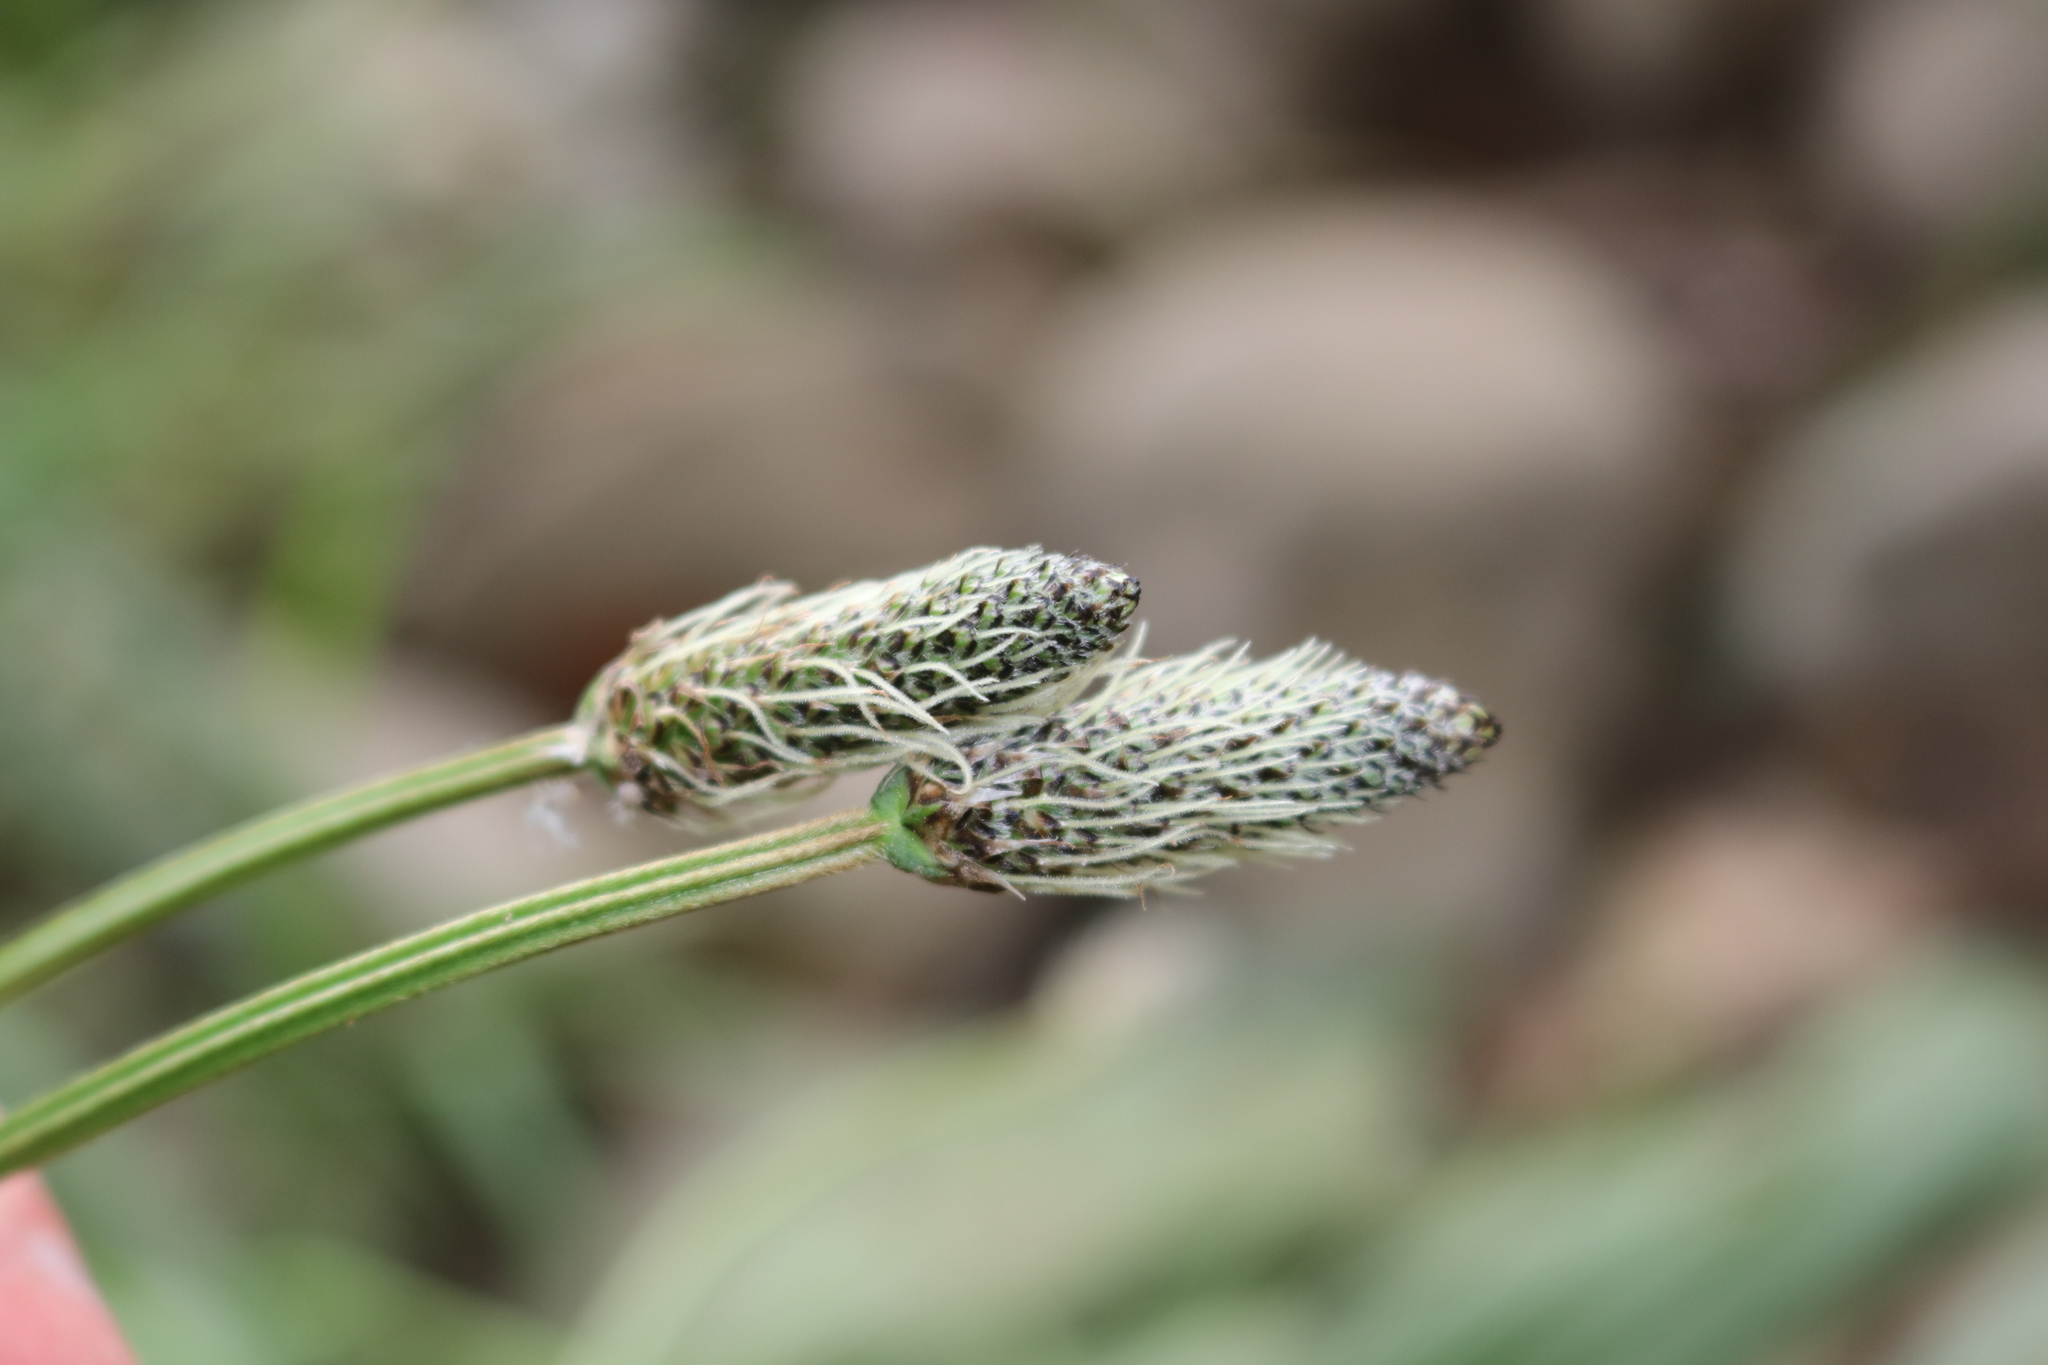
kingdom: Plantae
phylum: Tracheophyta
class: Magnoliopsida
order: Lamiales
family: Plantaginaceae
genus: Plantago
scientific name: Plantago lanceolata
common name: Ribwort plantain
